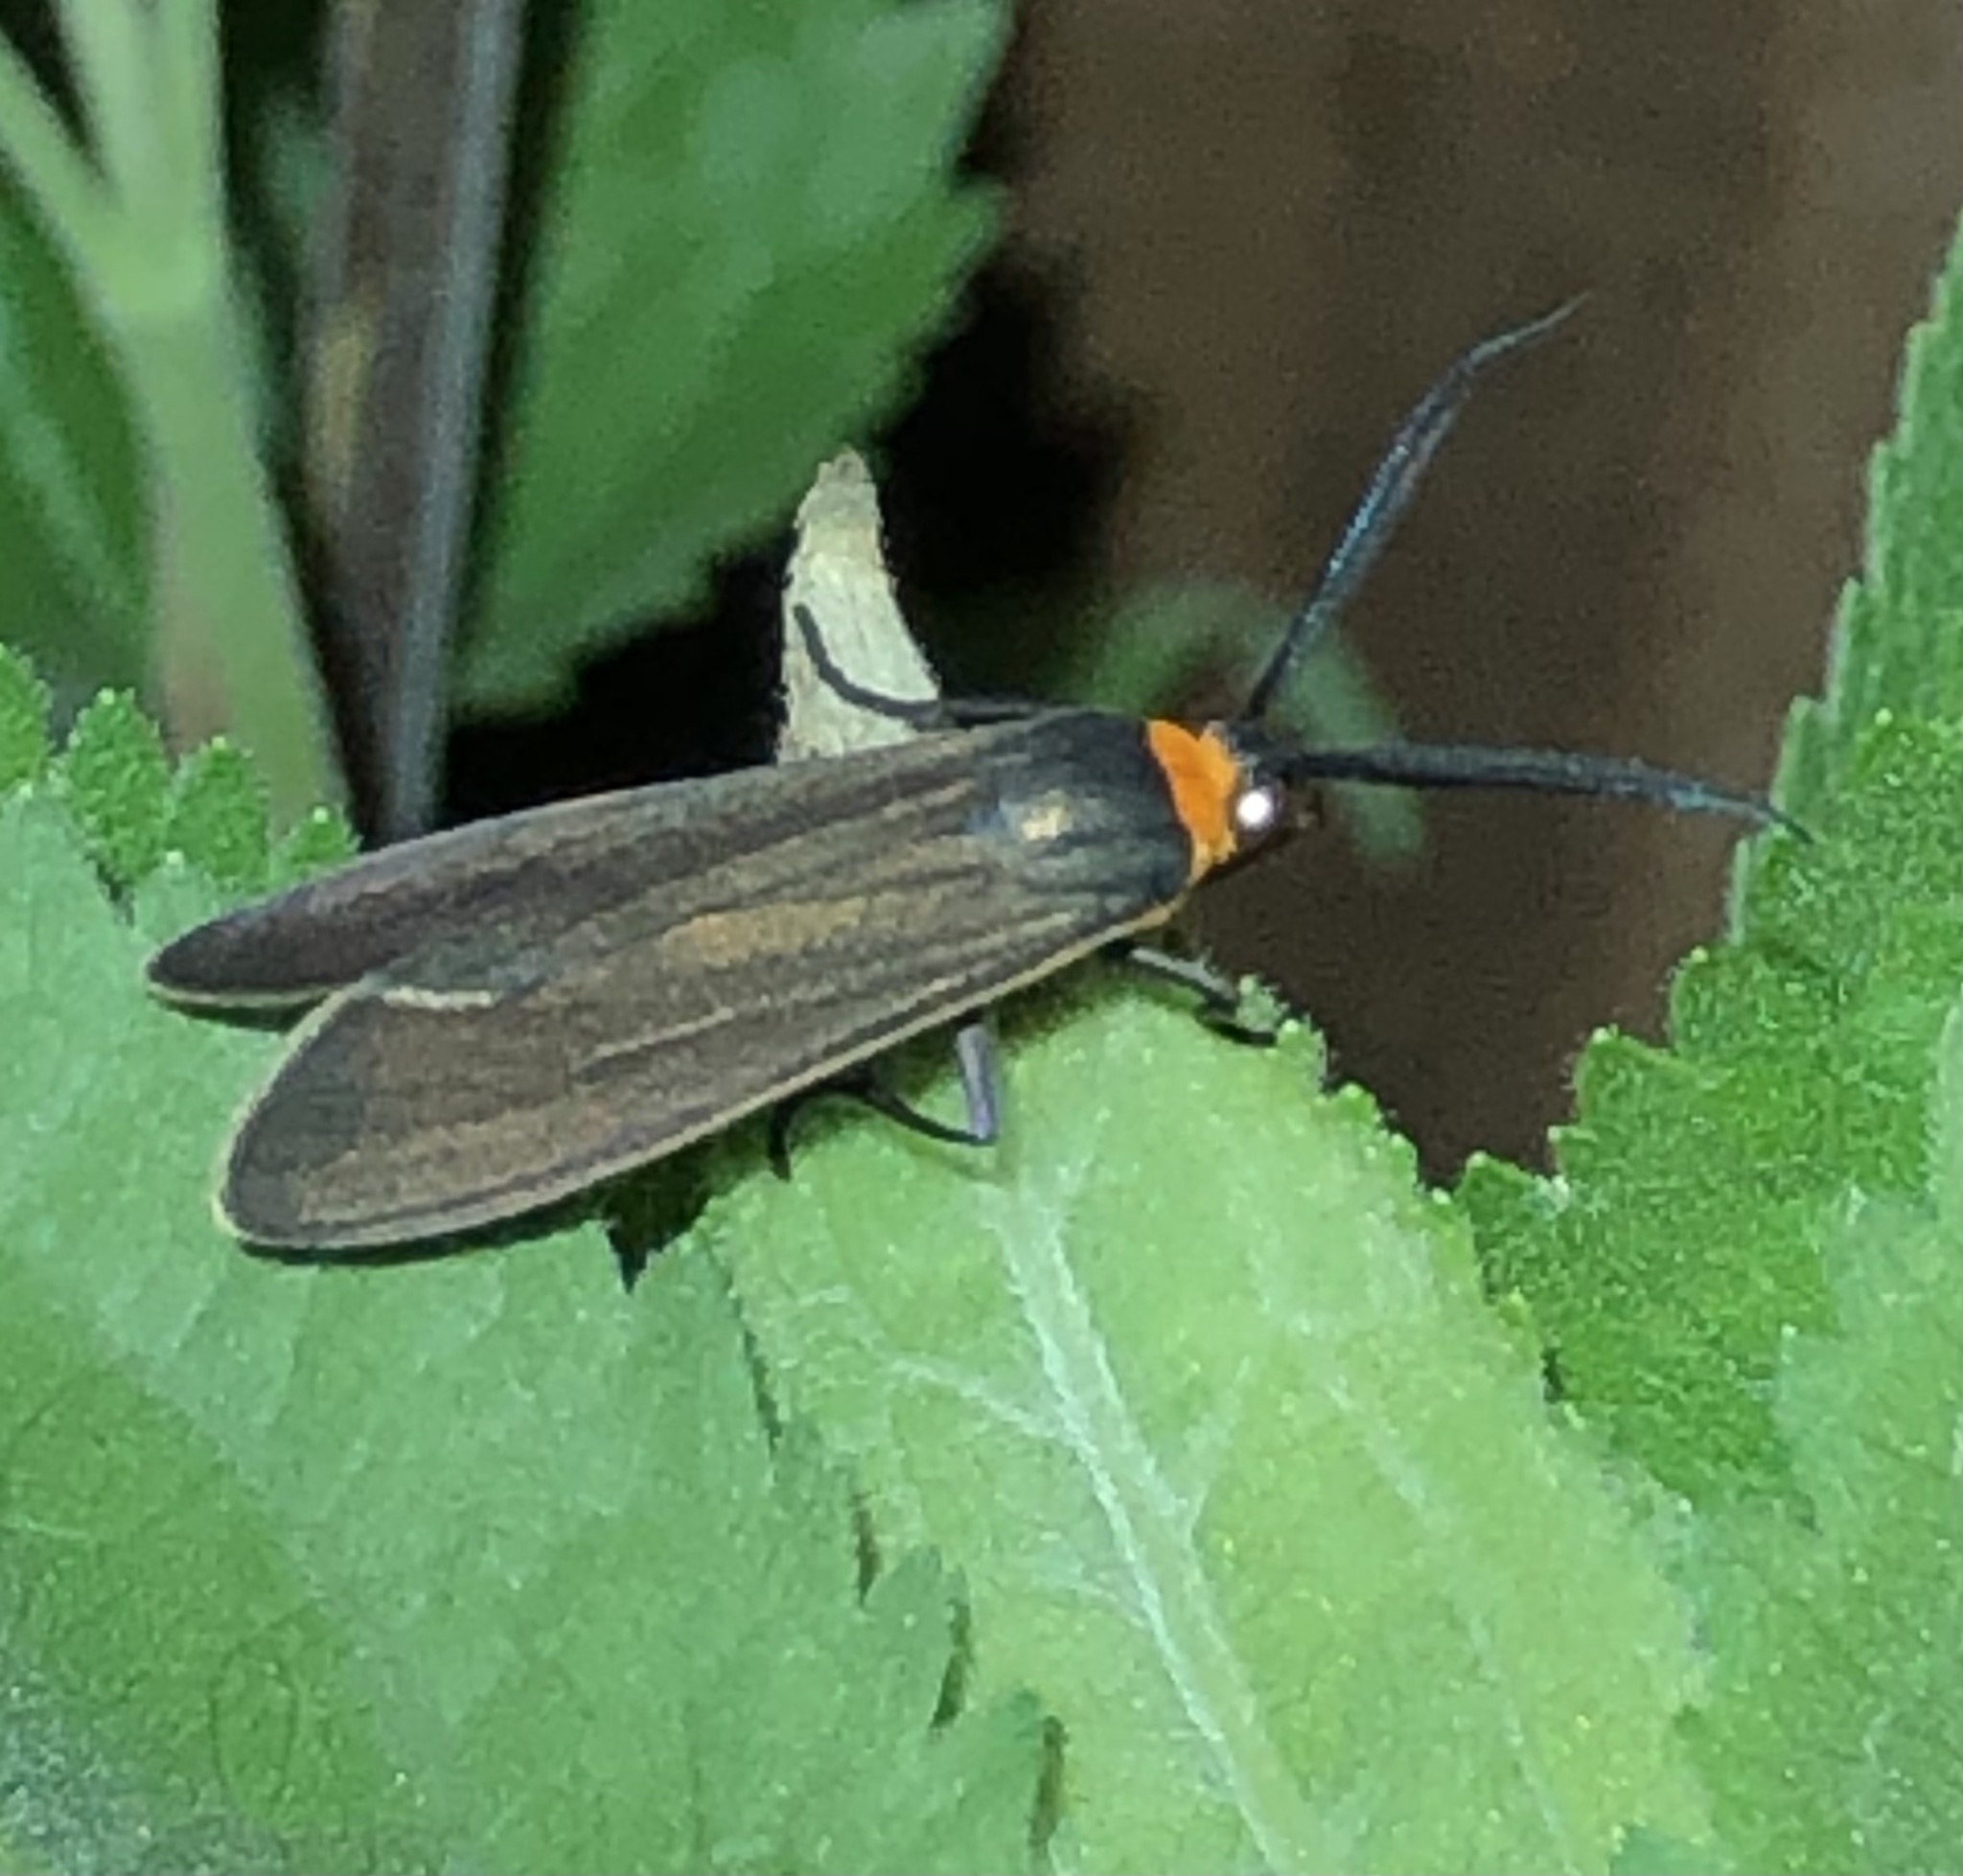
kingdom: Animalia
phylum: Arthropoda
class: Insecta
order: Lepidoptera
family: Erebidae
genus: Cisseps
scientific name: Cisseps fulvicollis
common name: Yellow-collared scape moth
